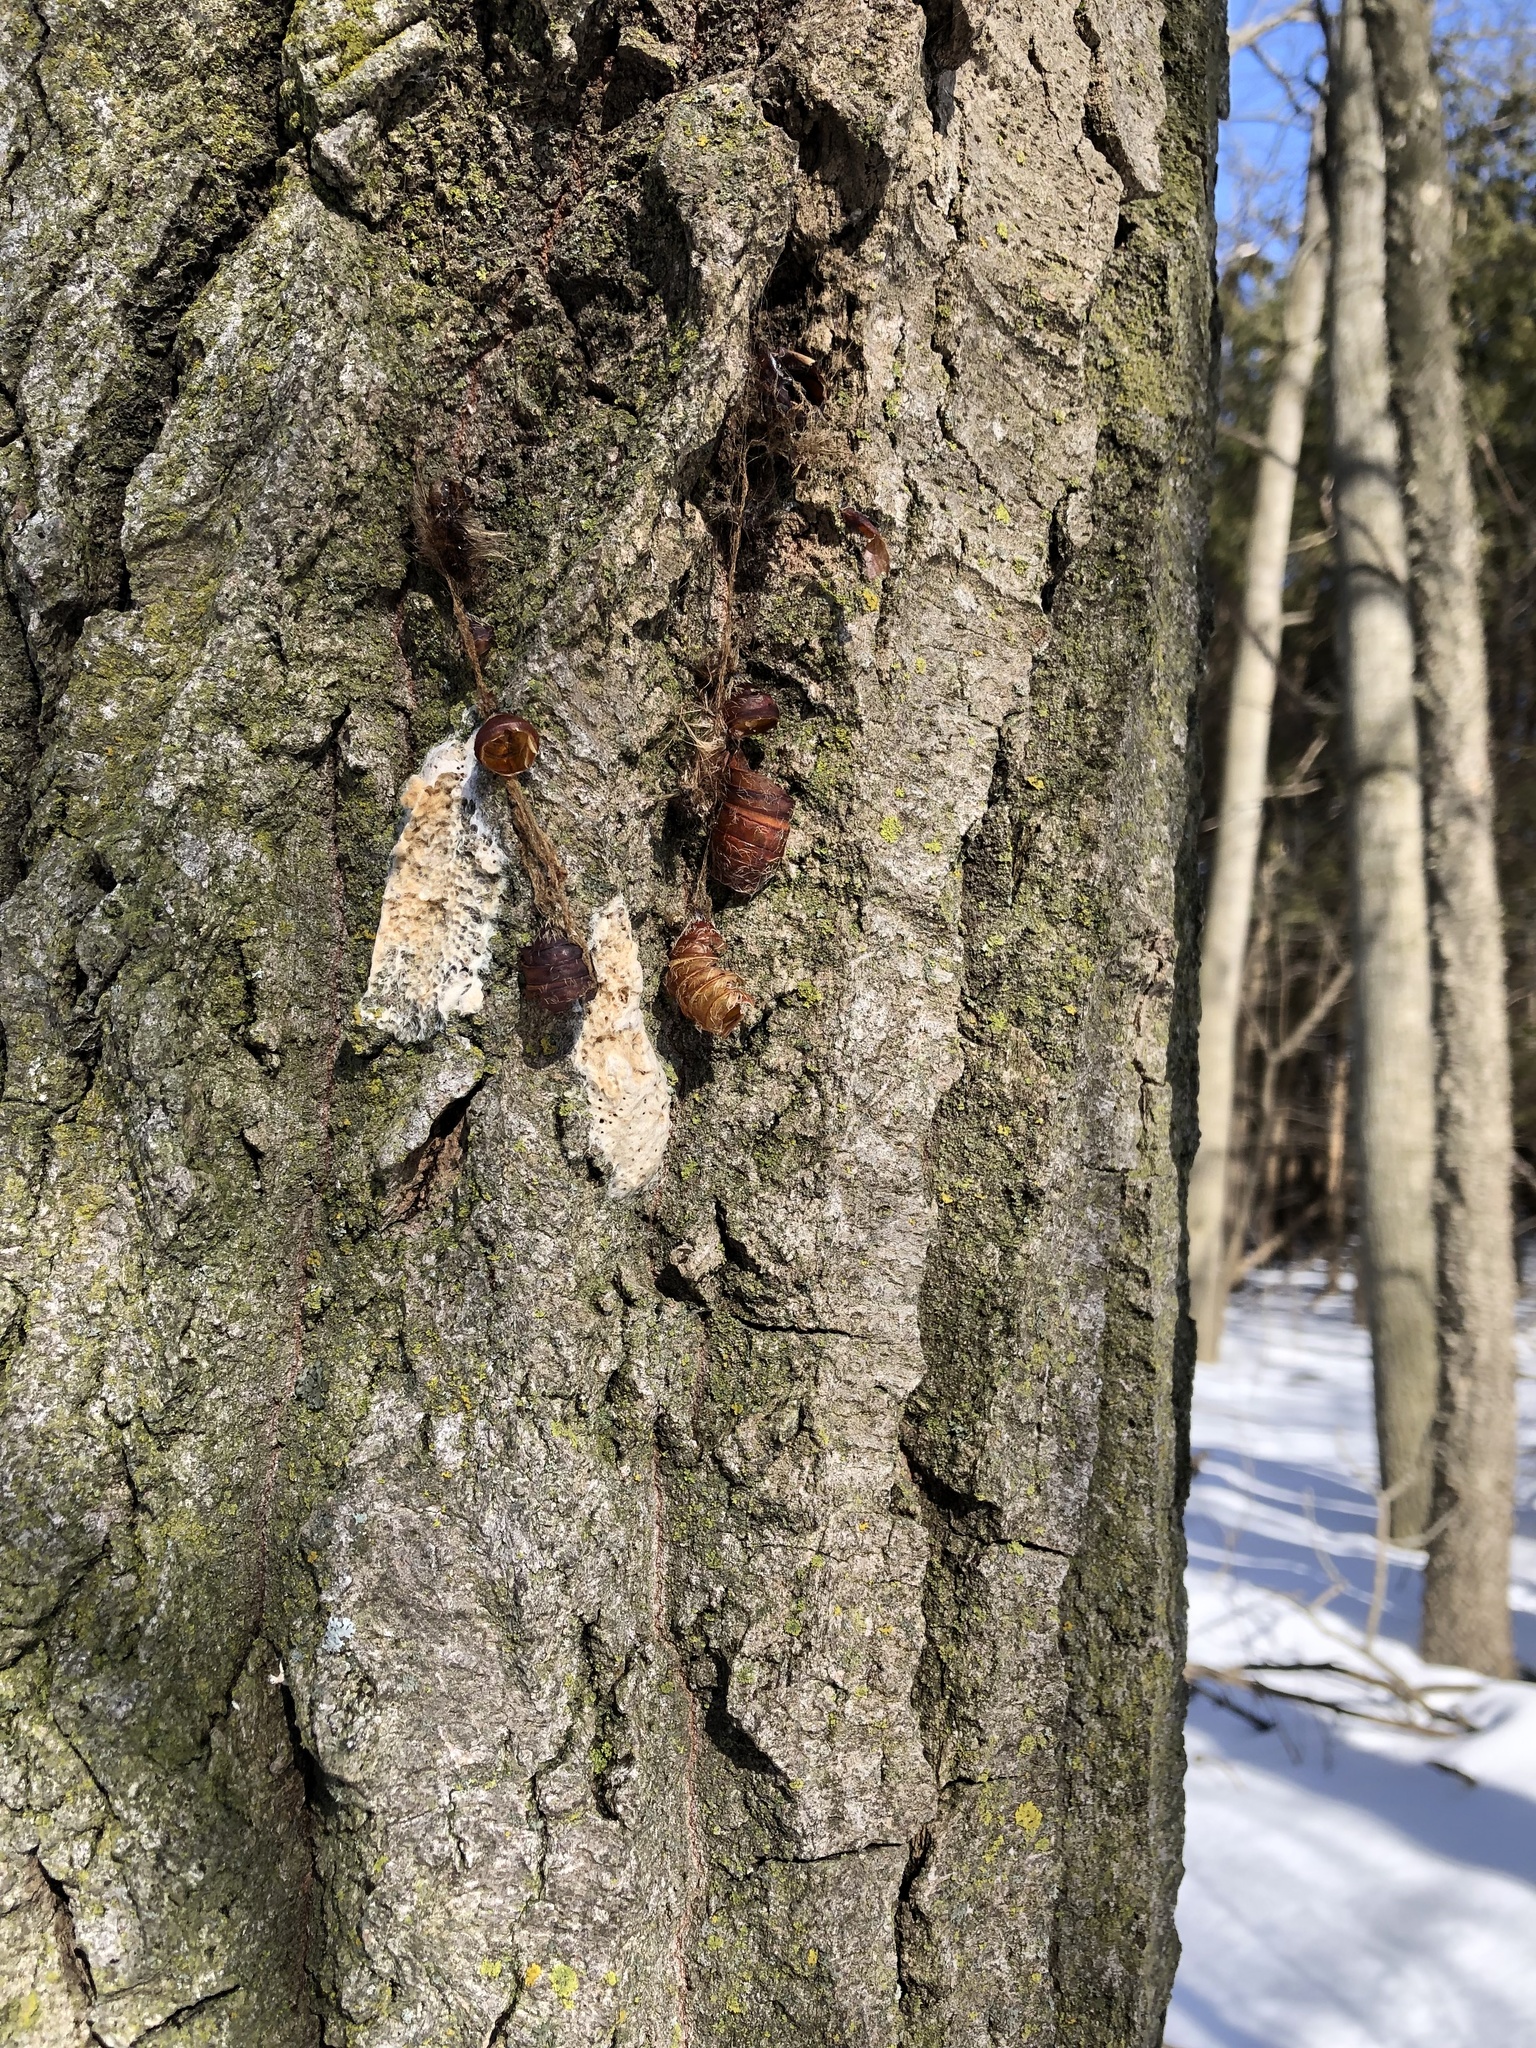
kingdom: Animalia
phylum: Arthropoda
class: Insecta
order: Lepidoptera
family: Erebidae
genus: Lymantria
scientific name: Lymantria dispar
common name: Gypsy moth
